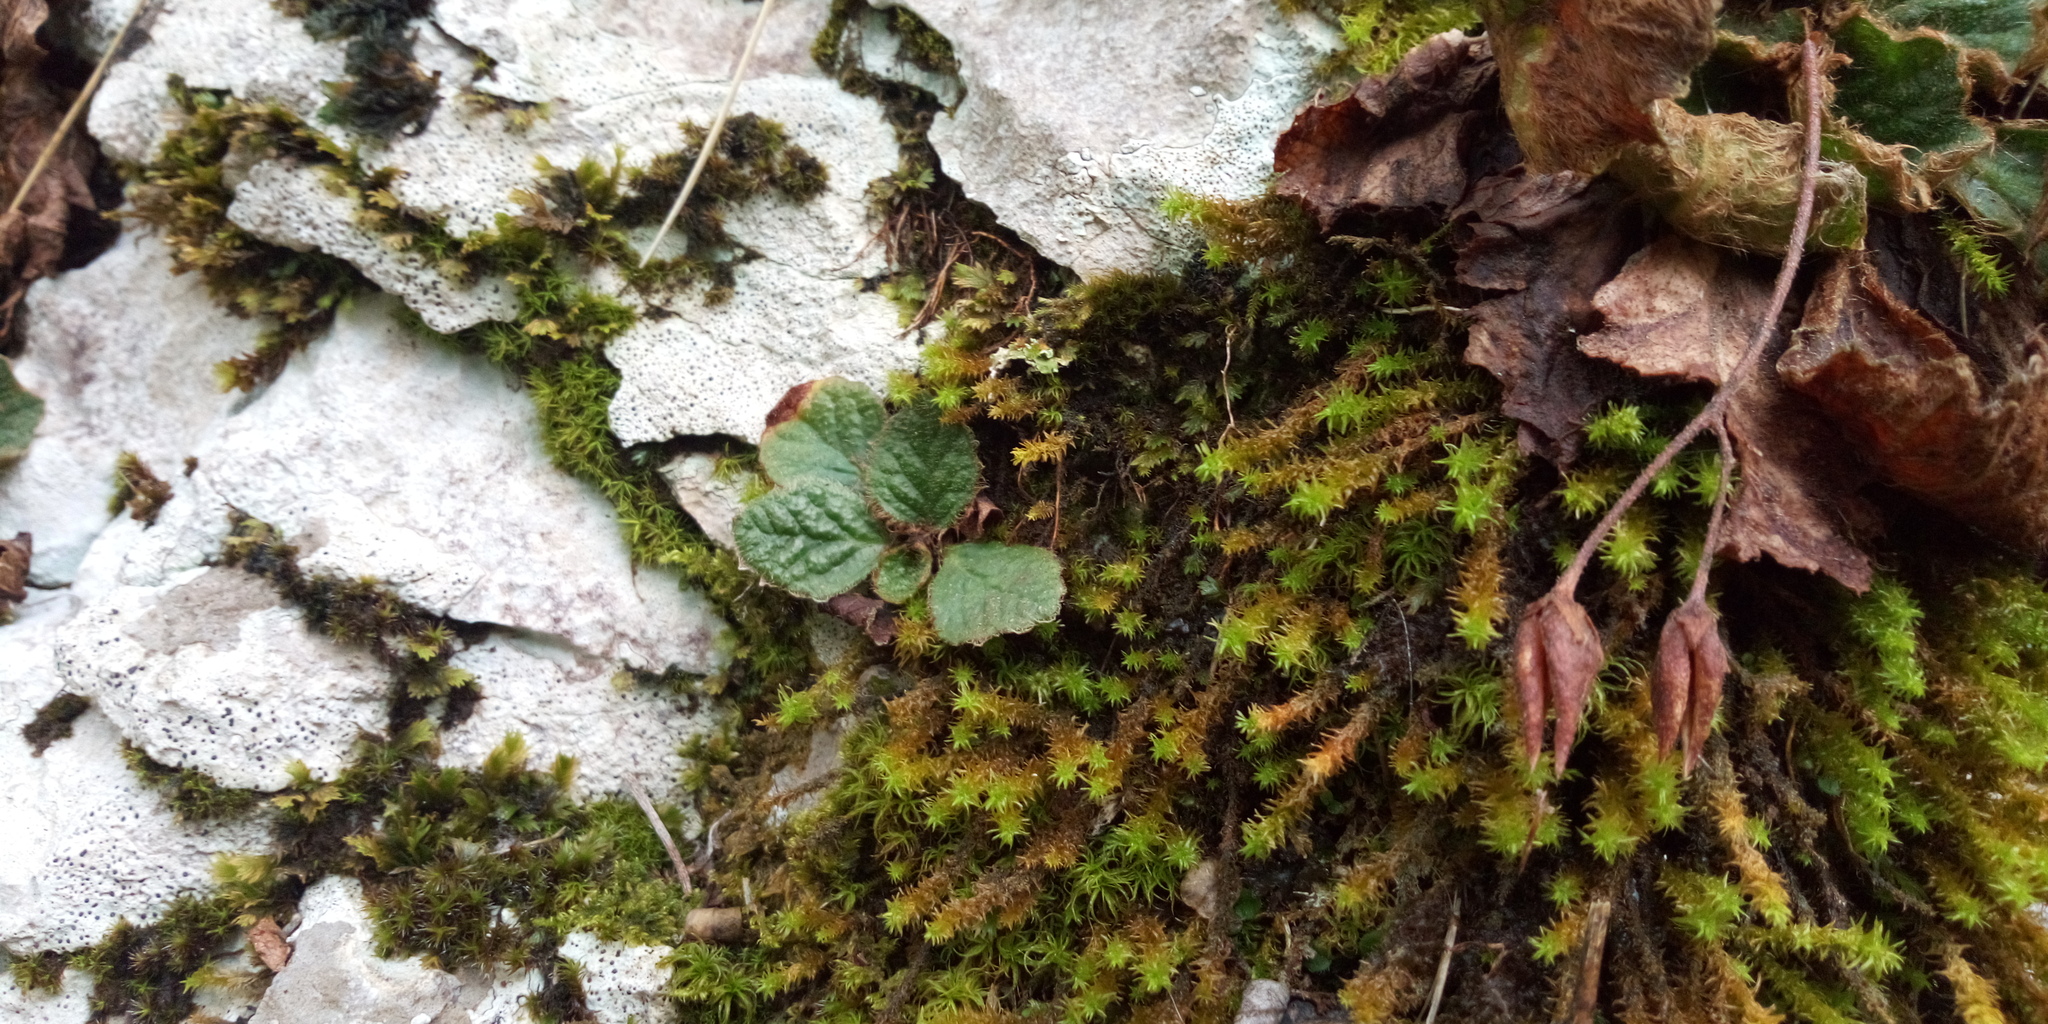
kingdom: Plantae
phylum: Tracheophyta
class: Magnoliopsida
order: Lamiales
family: Gesneriaceae
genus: Ramonda
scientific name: Ramonda serbica
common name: Serbian phoenix flower
